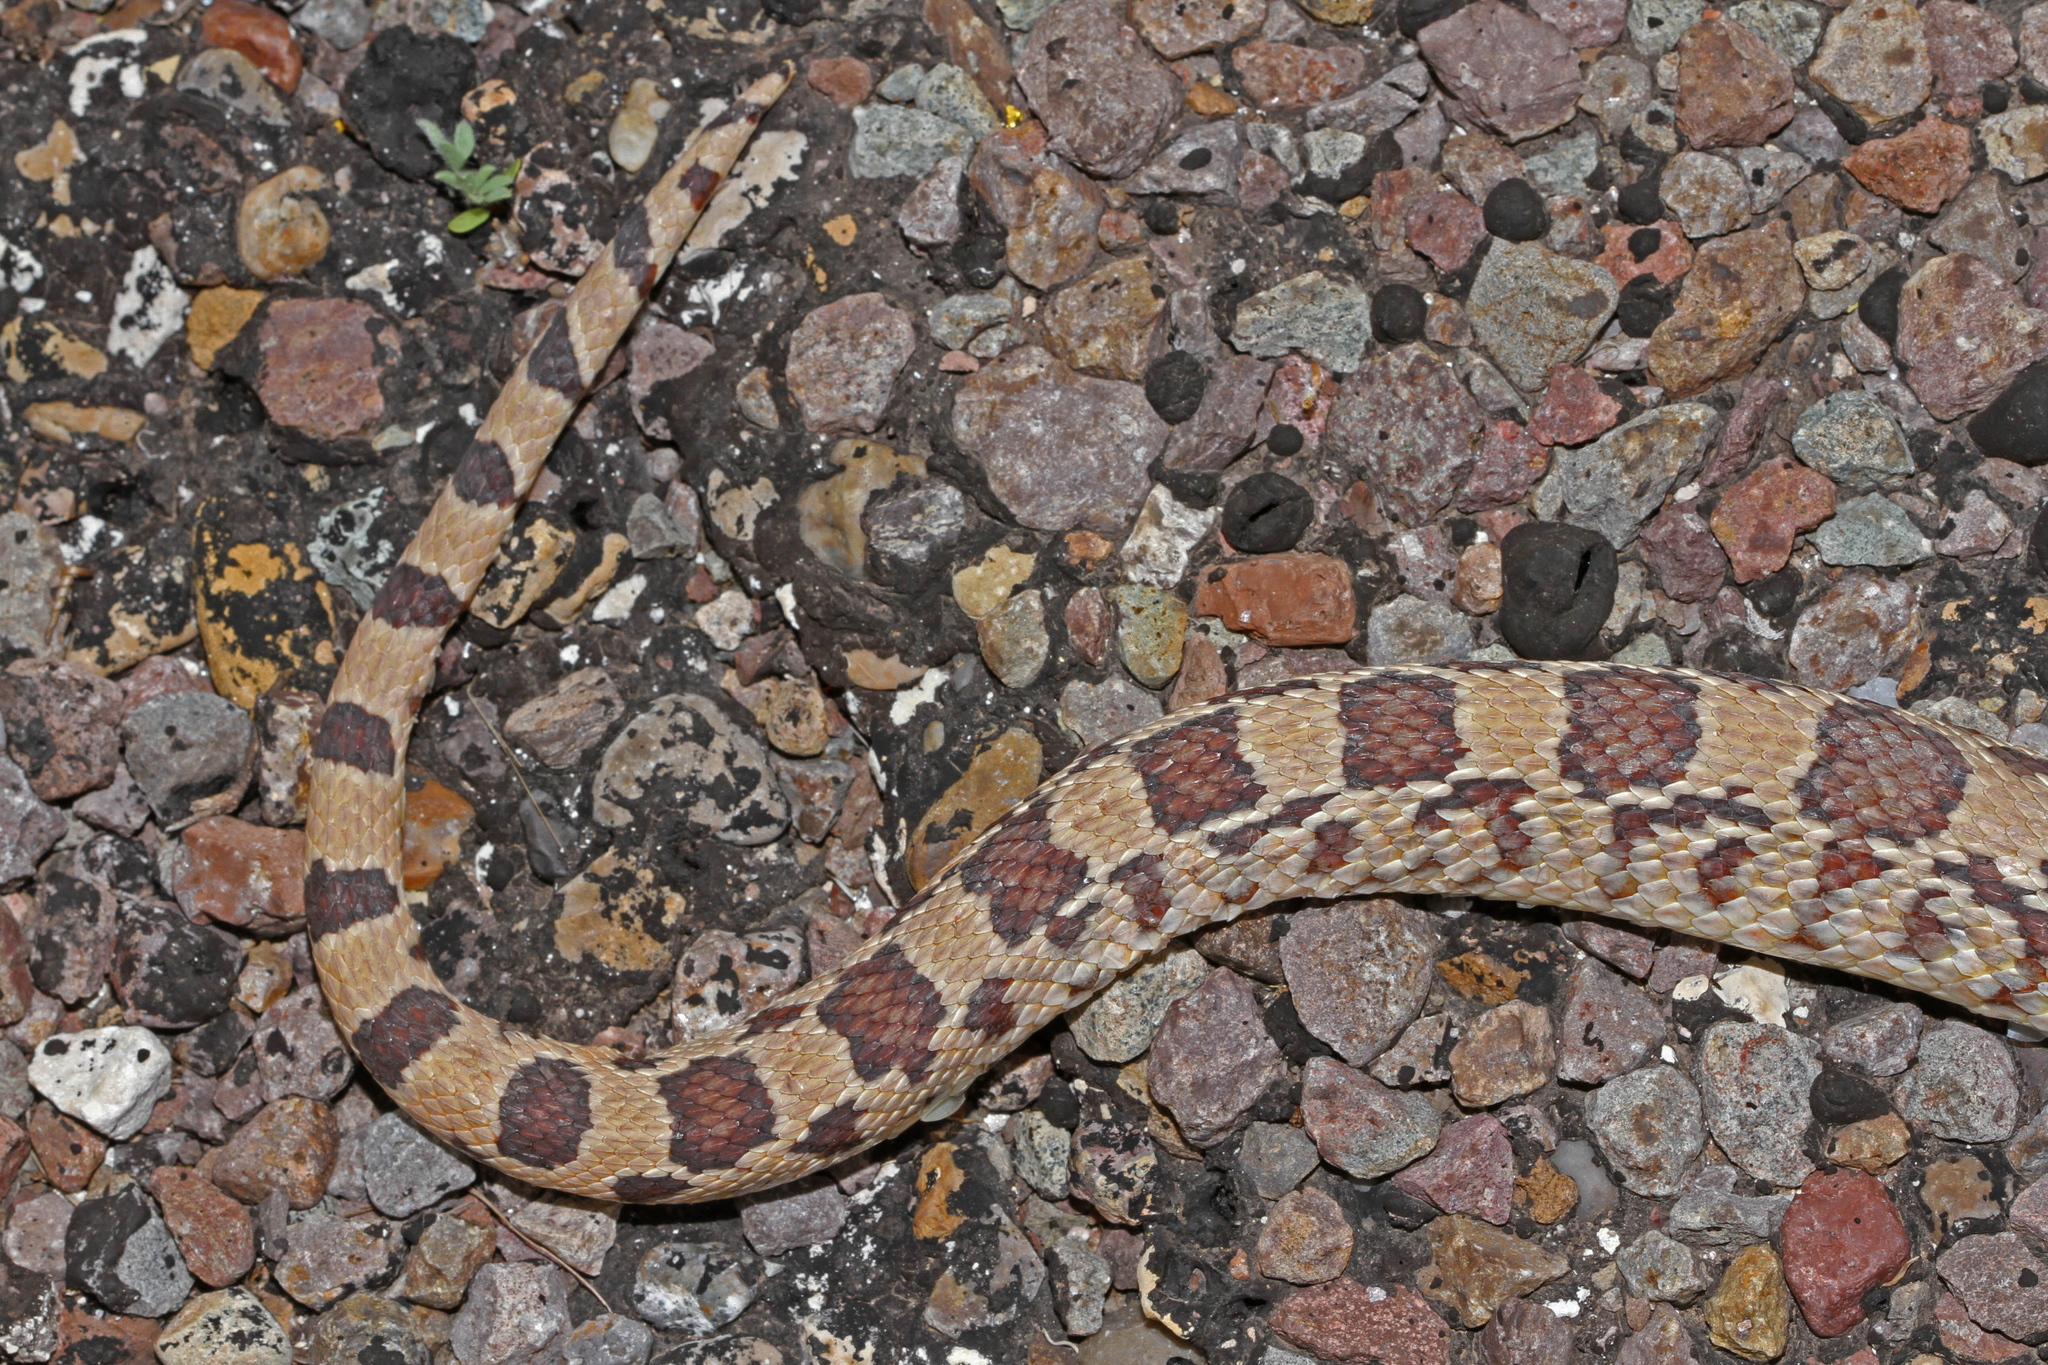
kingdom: Animalia
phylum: Chordata
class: Squamata
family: Colubridae
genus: Pituophis
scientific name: Pituophis catenifer
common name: Gopher snake
